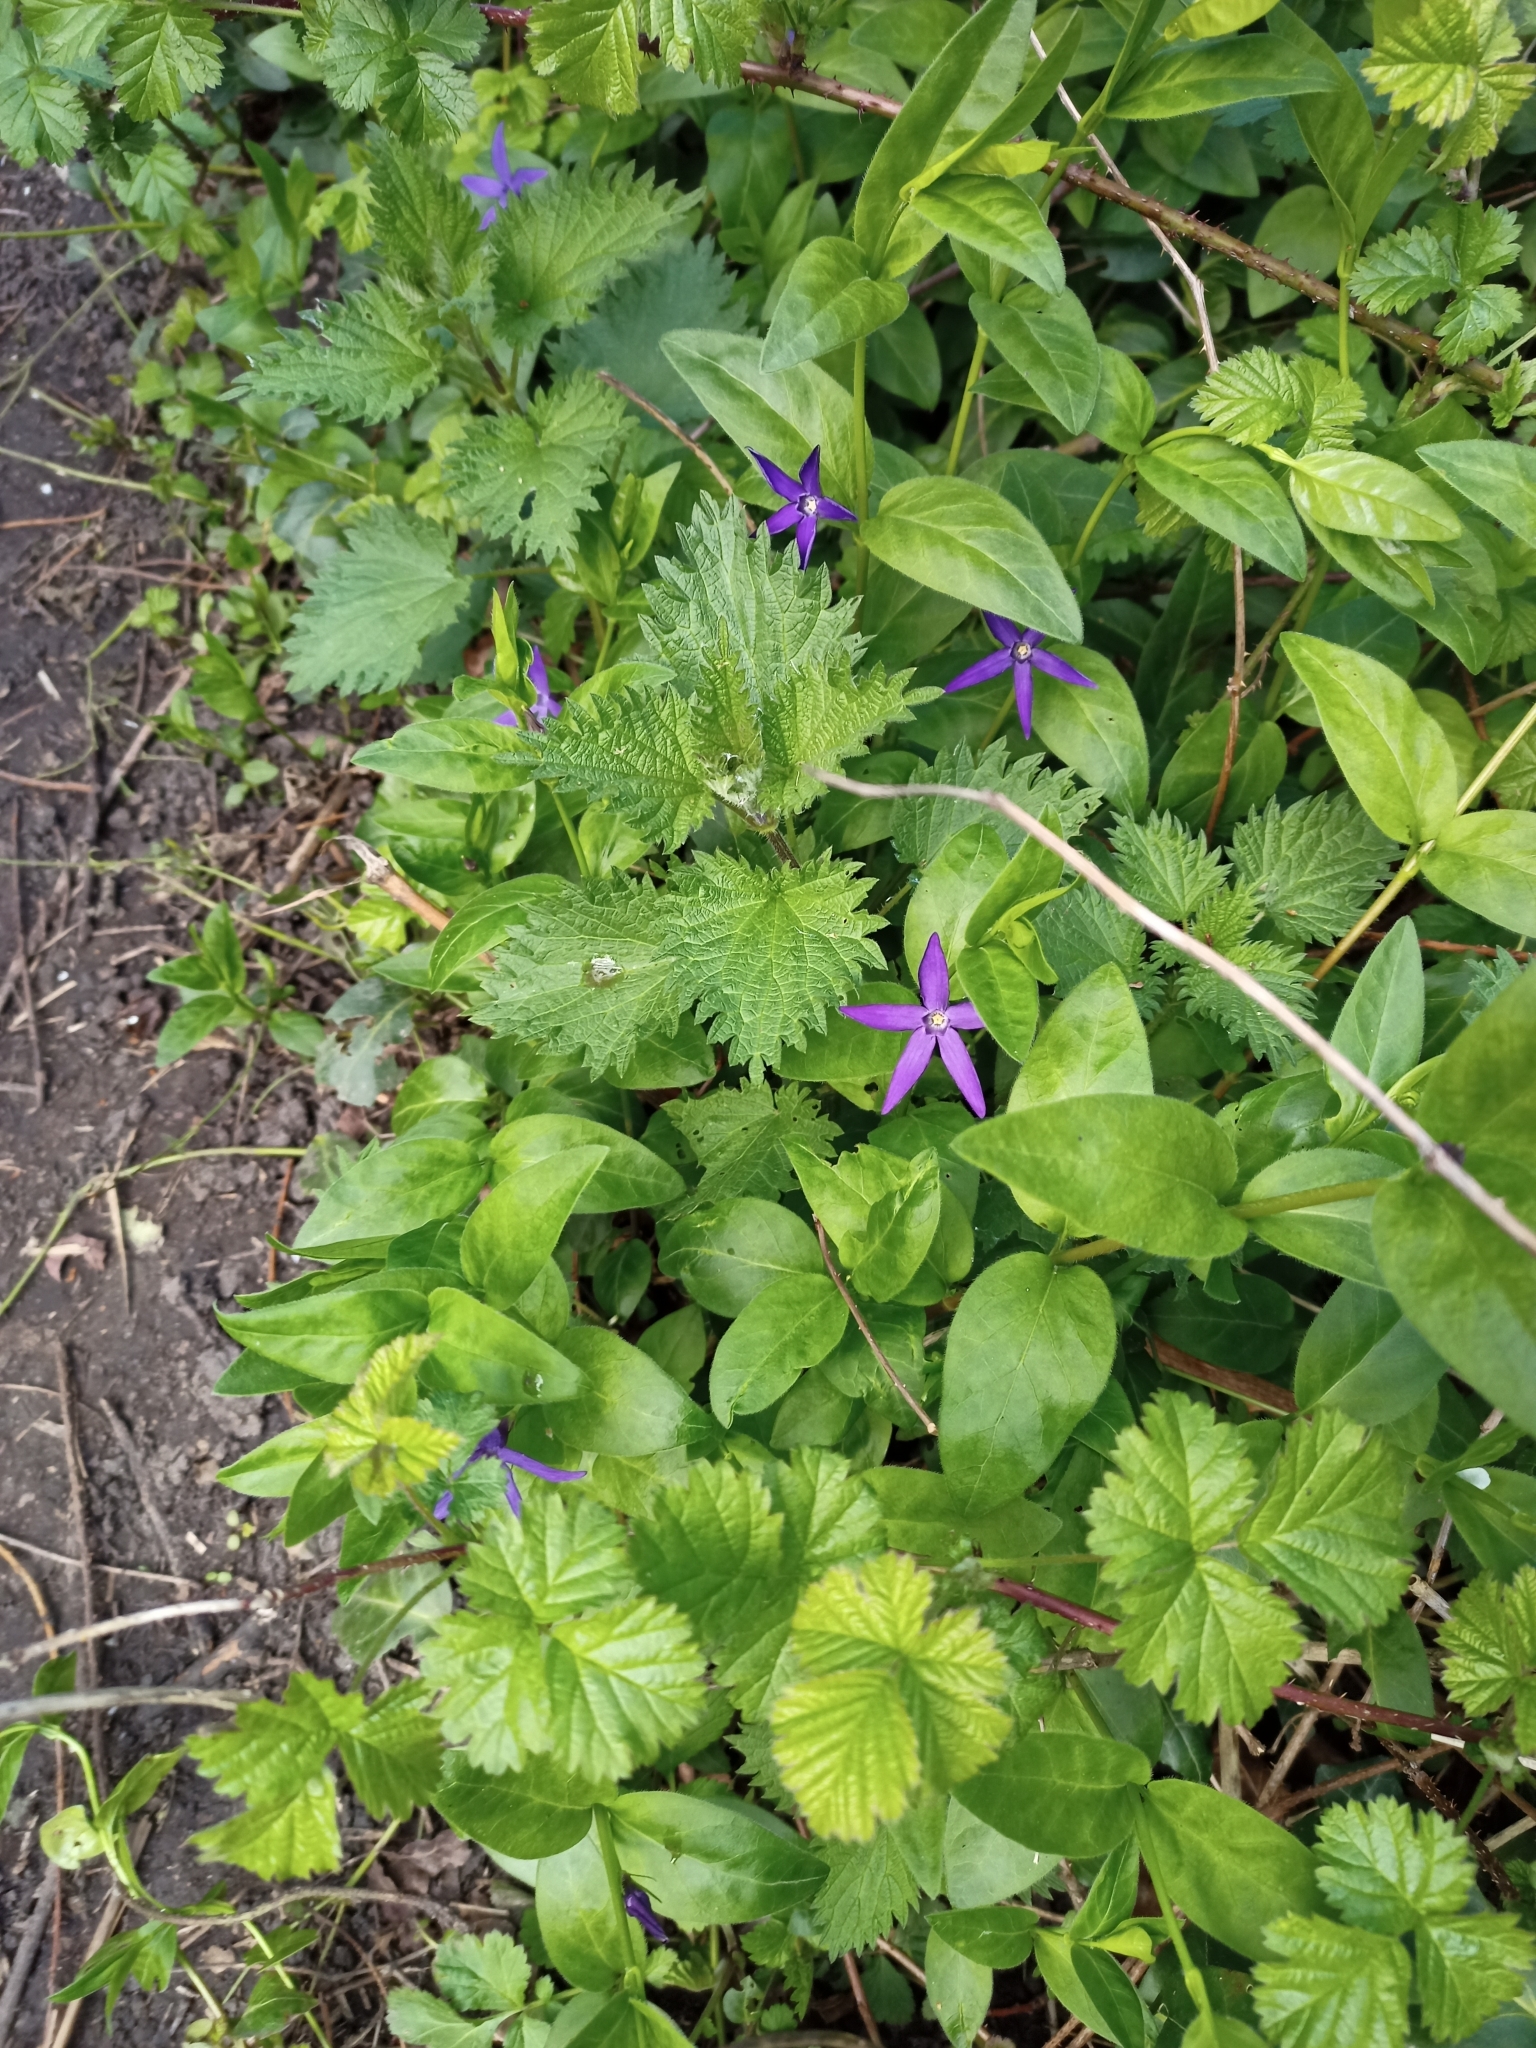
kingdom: Plantae
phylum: Tracheophyta
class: Magnoliopsida
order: Gentianales
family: Apocynaceae
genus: Vinca
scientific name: Vinca major
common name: Greater periwinkle
